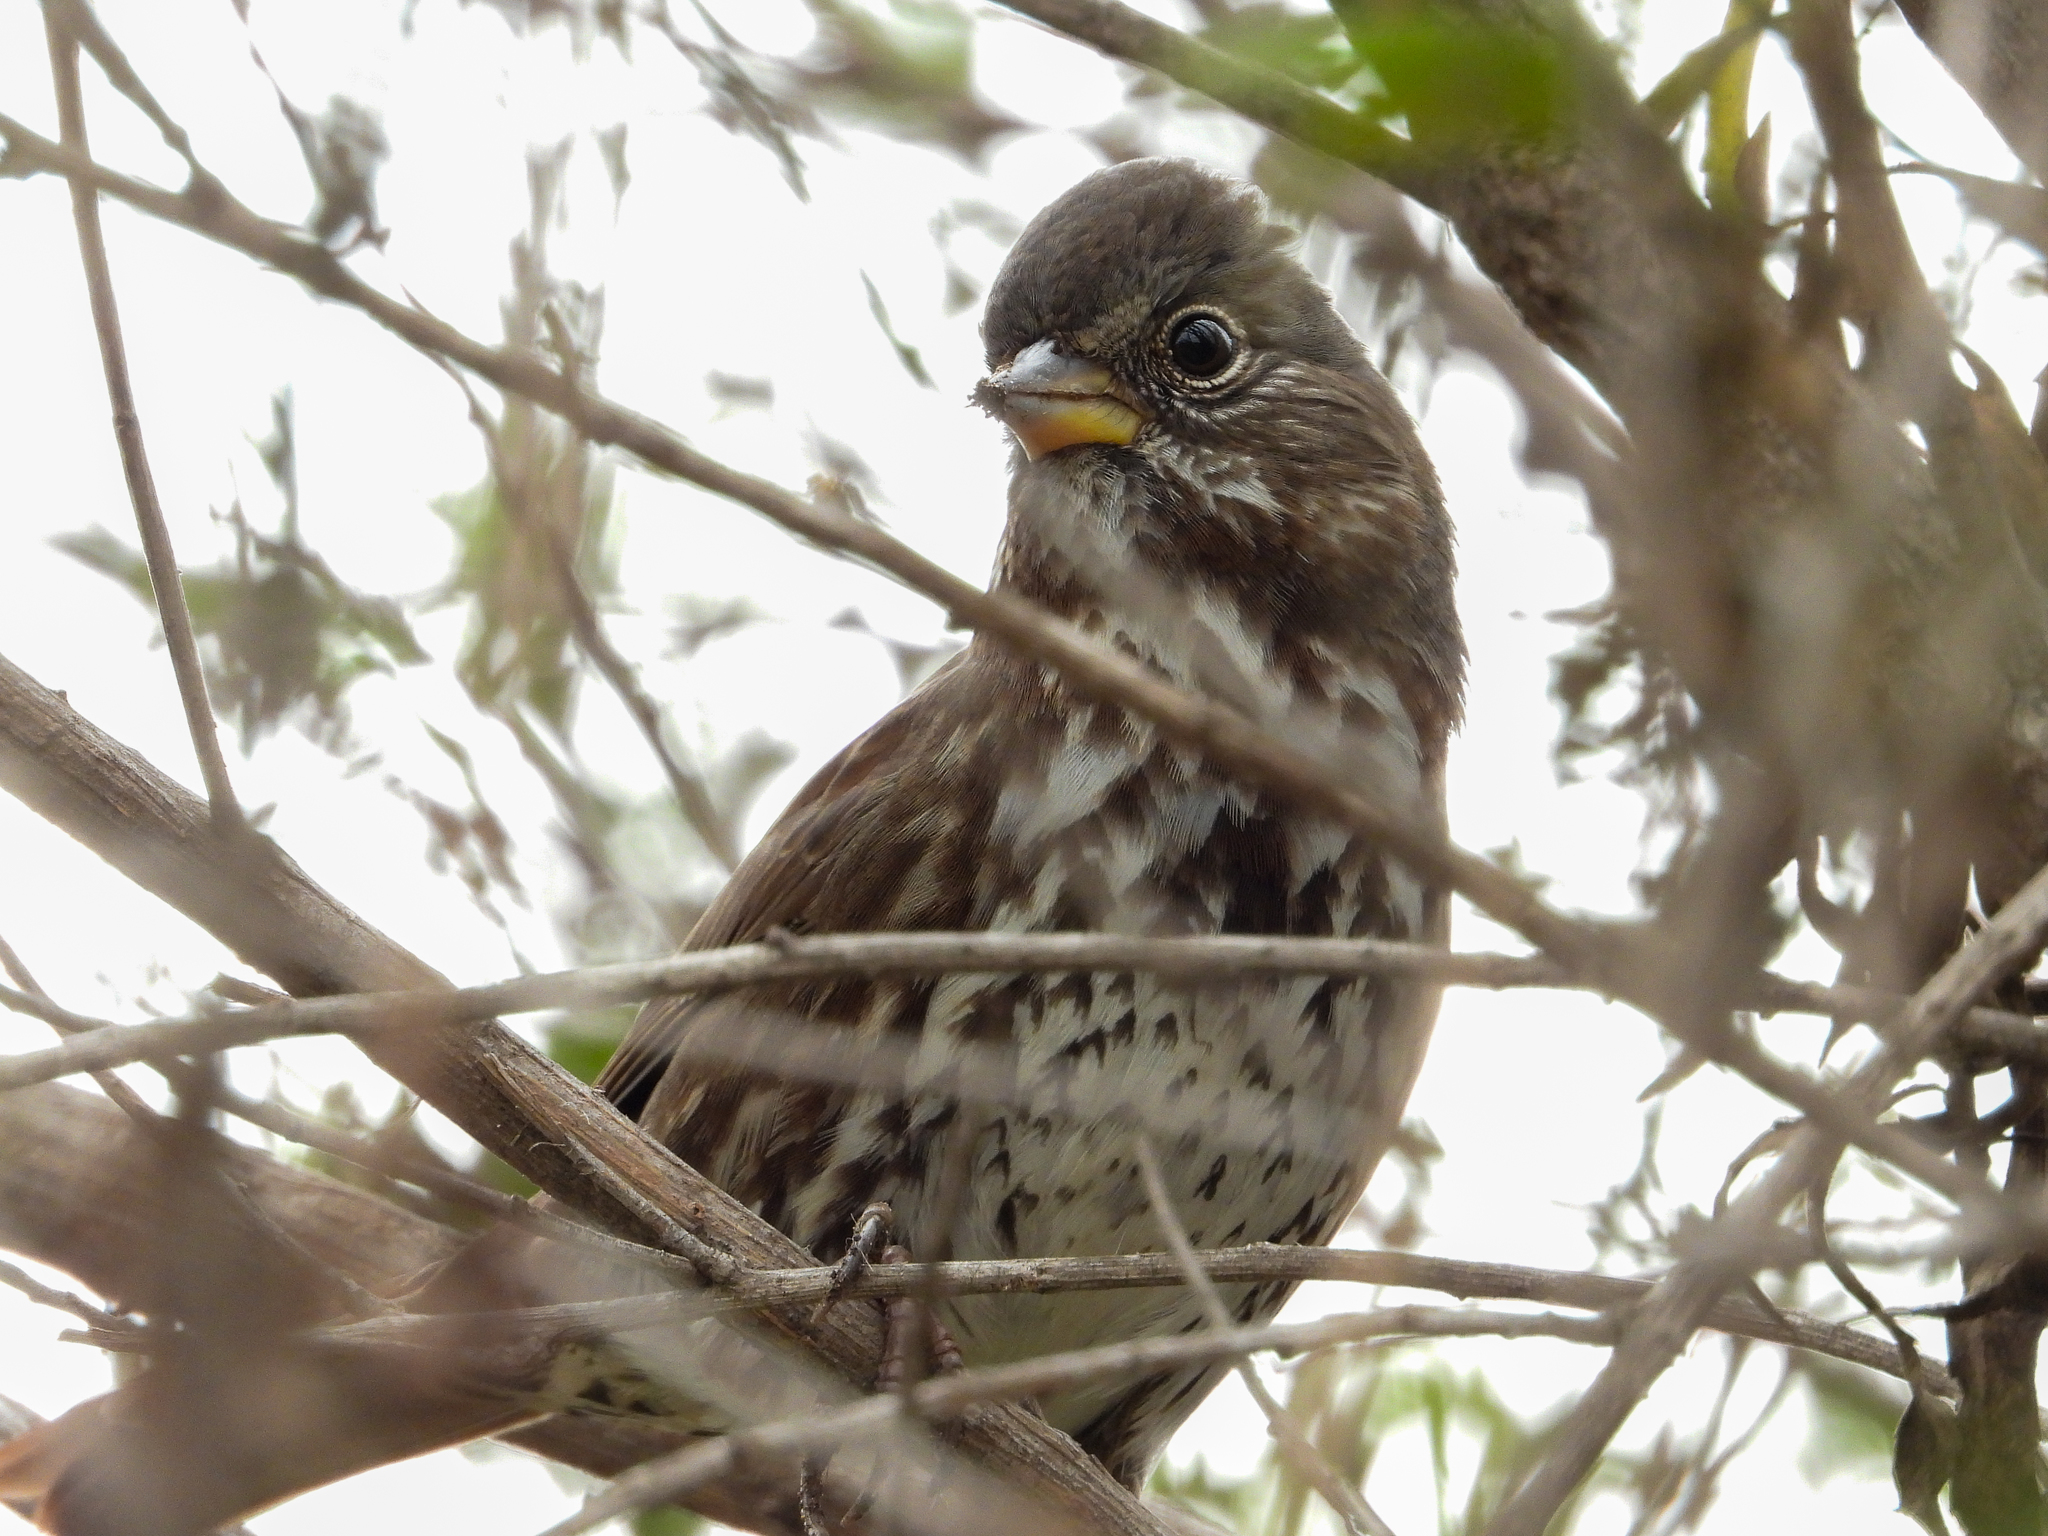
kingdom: Animalia
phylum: Chordata
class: Aves
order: Passeriformes
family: Passerellidae
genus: Passerella
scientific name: Passerella iliaca
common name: Fox sparrow
